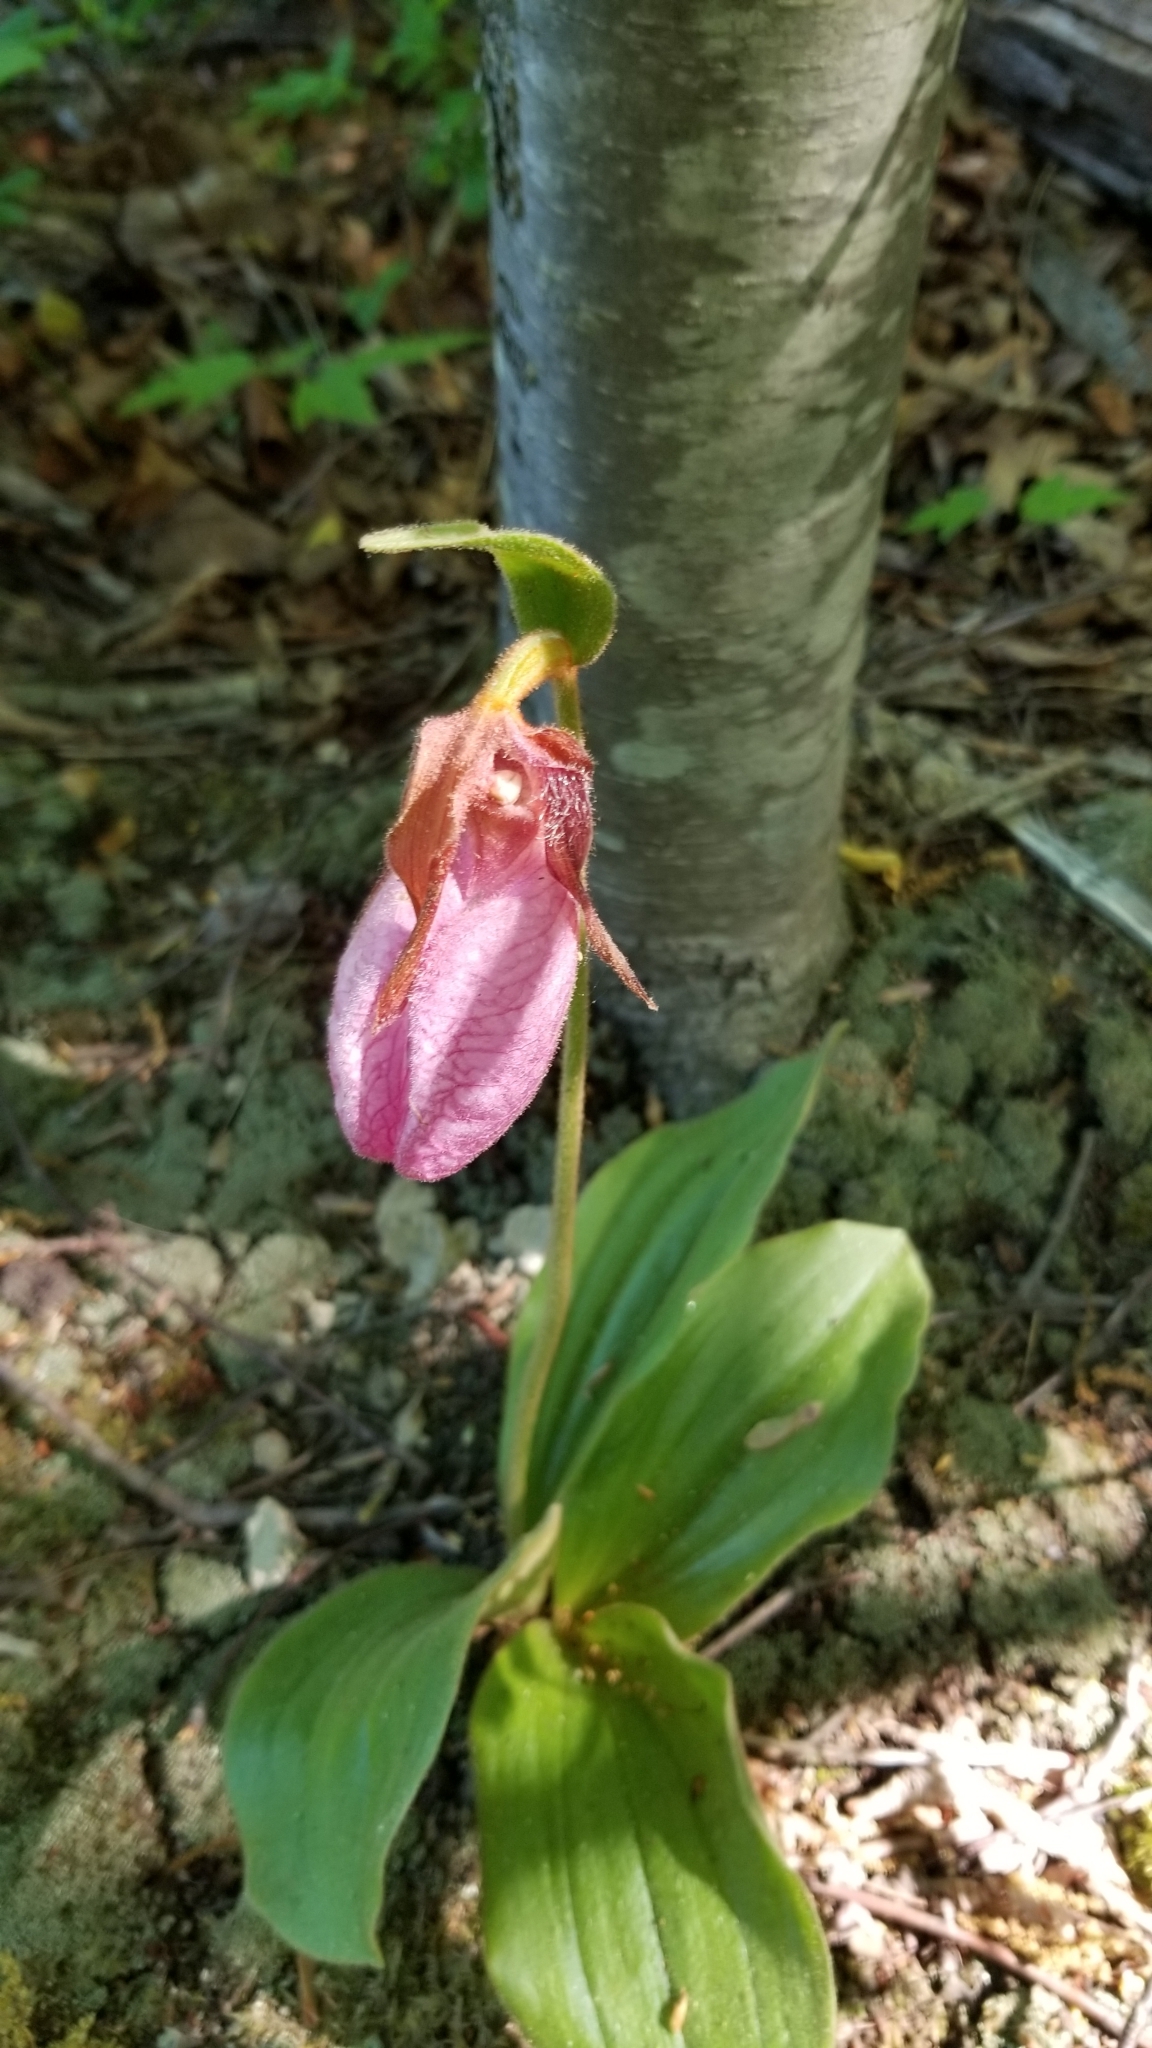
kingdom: Plantae
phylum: Tracheophyta
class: Liliopsida
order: Asparagales
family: Orchidaceae
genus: Cypripedium
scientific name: Cypripedium acaule
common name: Pink lady's-slipper
